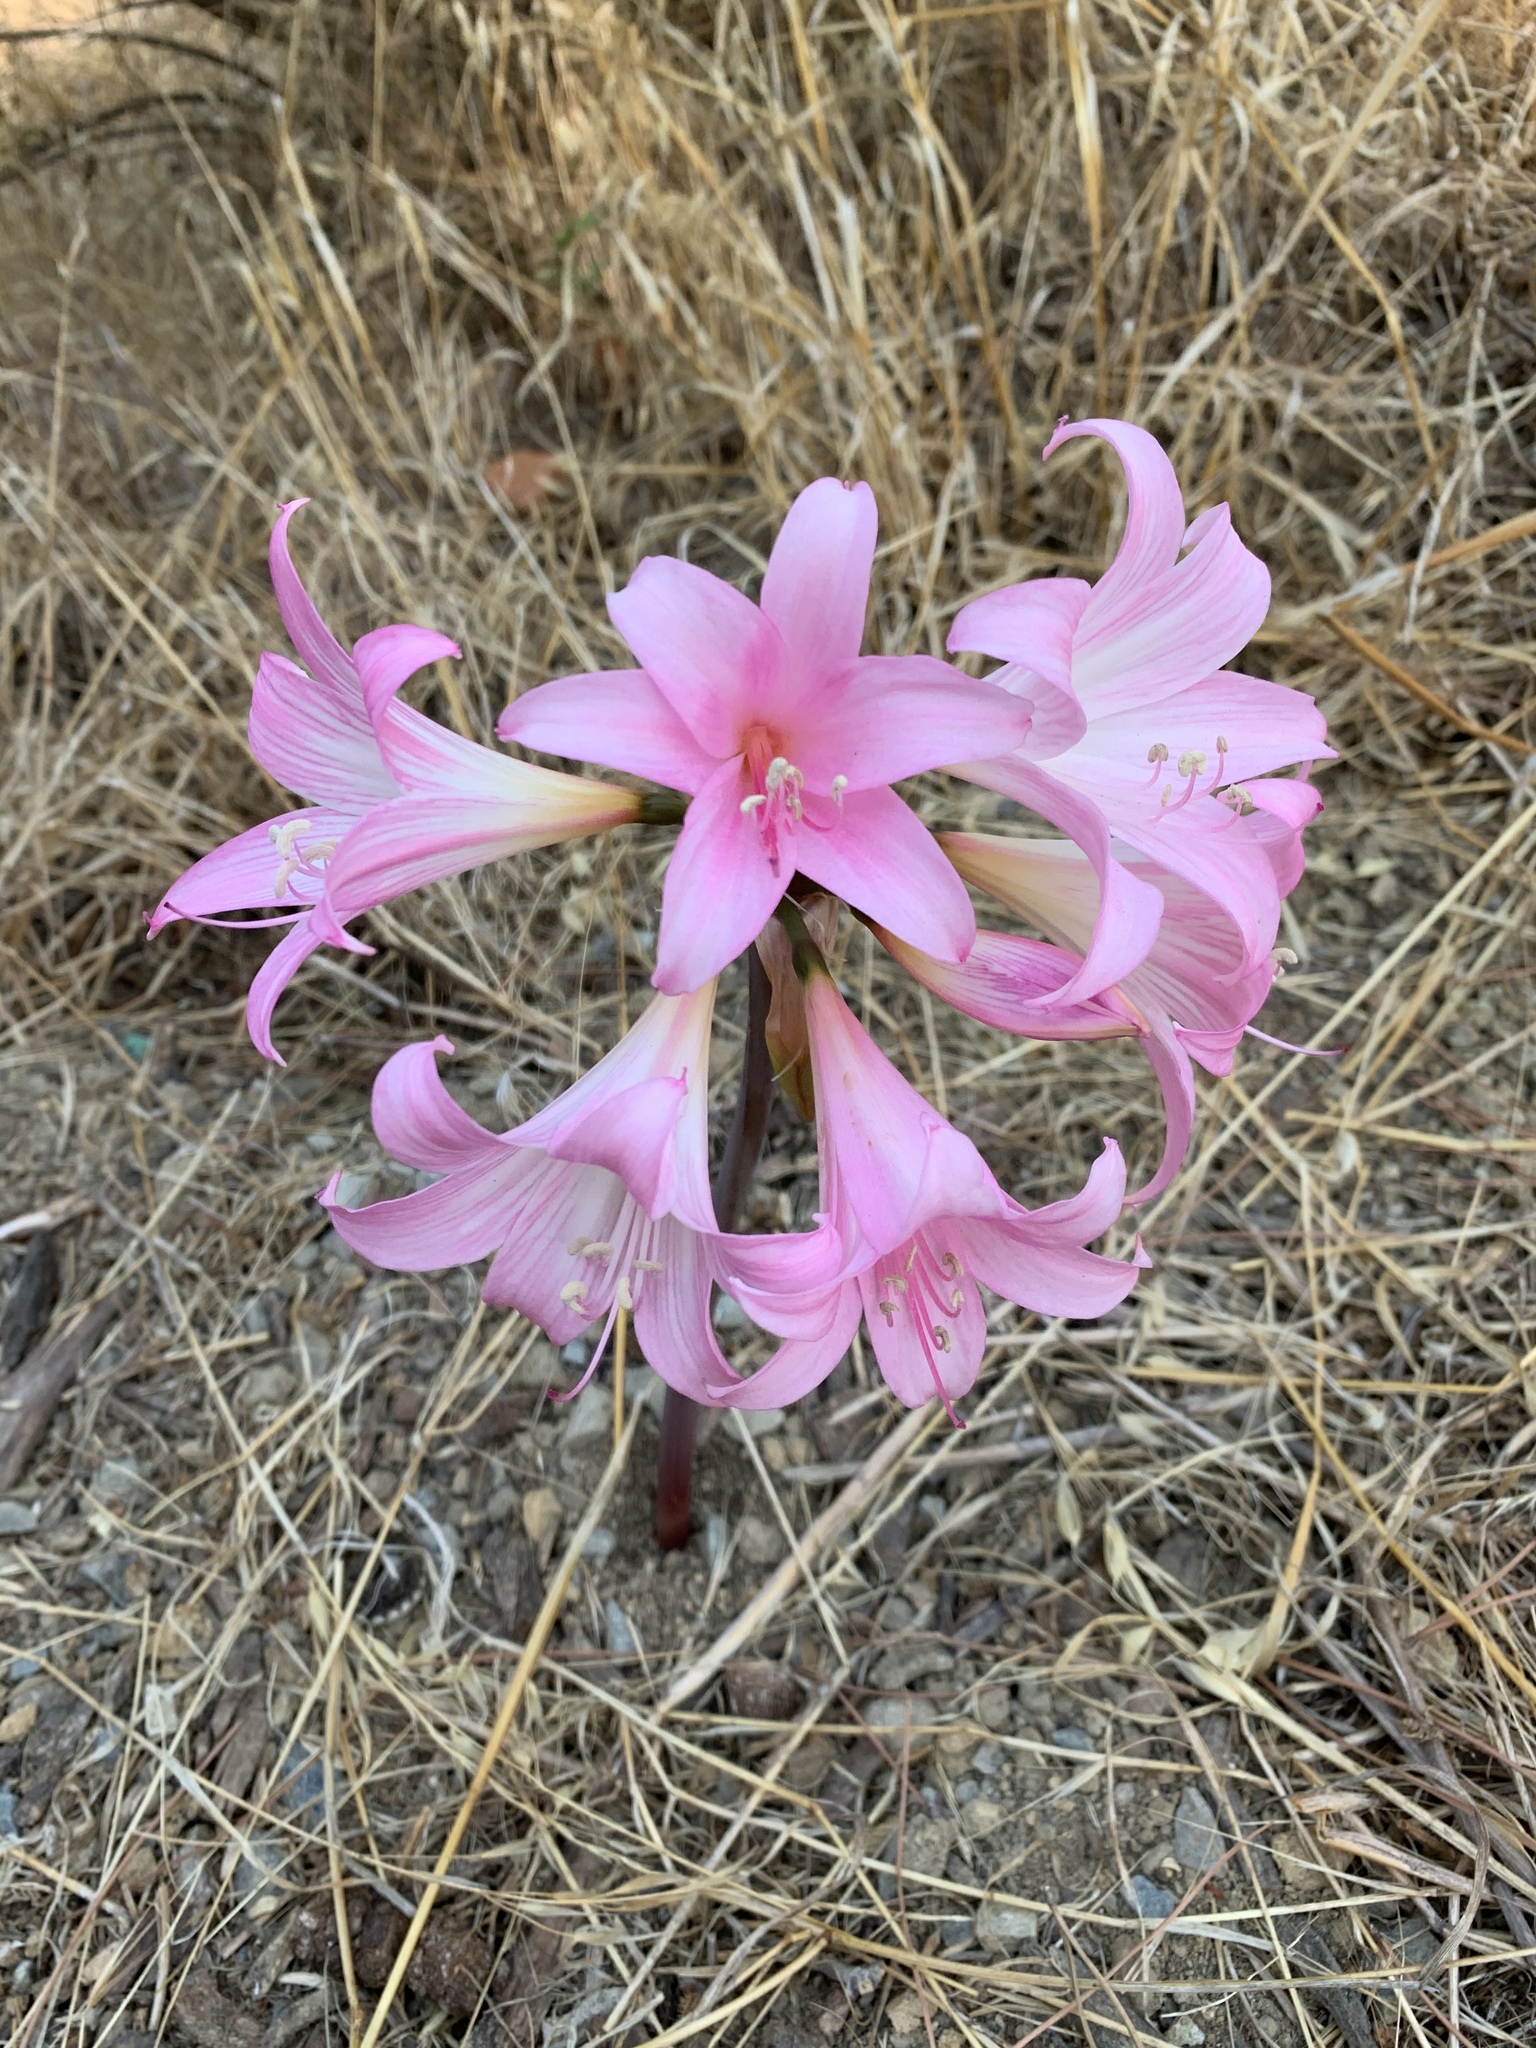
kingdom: Plantae
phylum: Tracheophyta
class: Liliopsida
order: Asparagales
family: Amaryllidaceae
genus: Amaryllis
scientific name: Amaryllis belladonna
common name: Jersey lily
